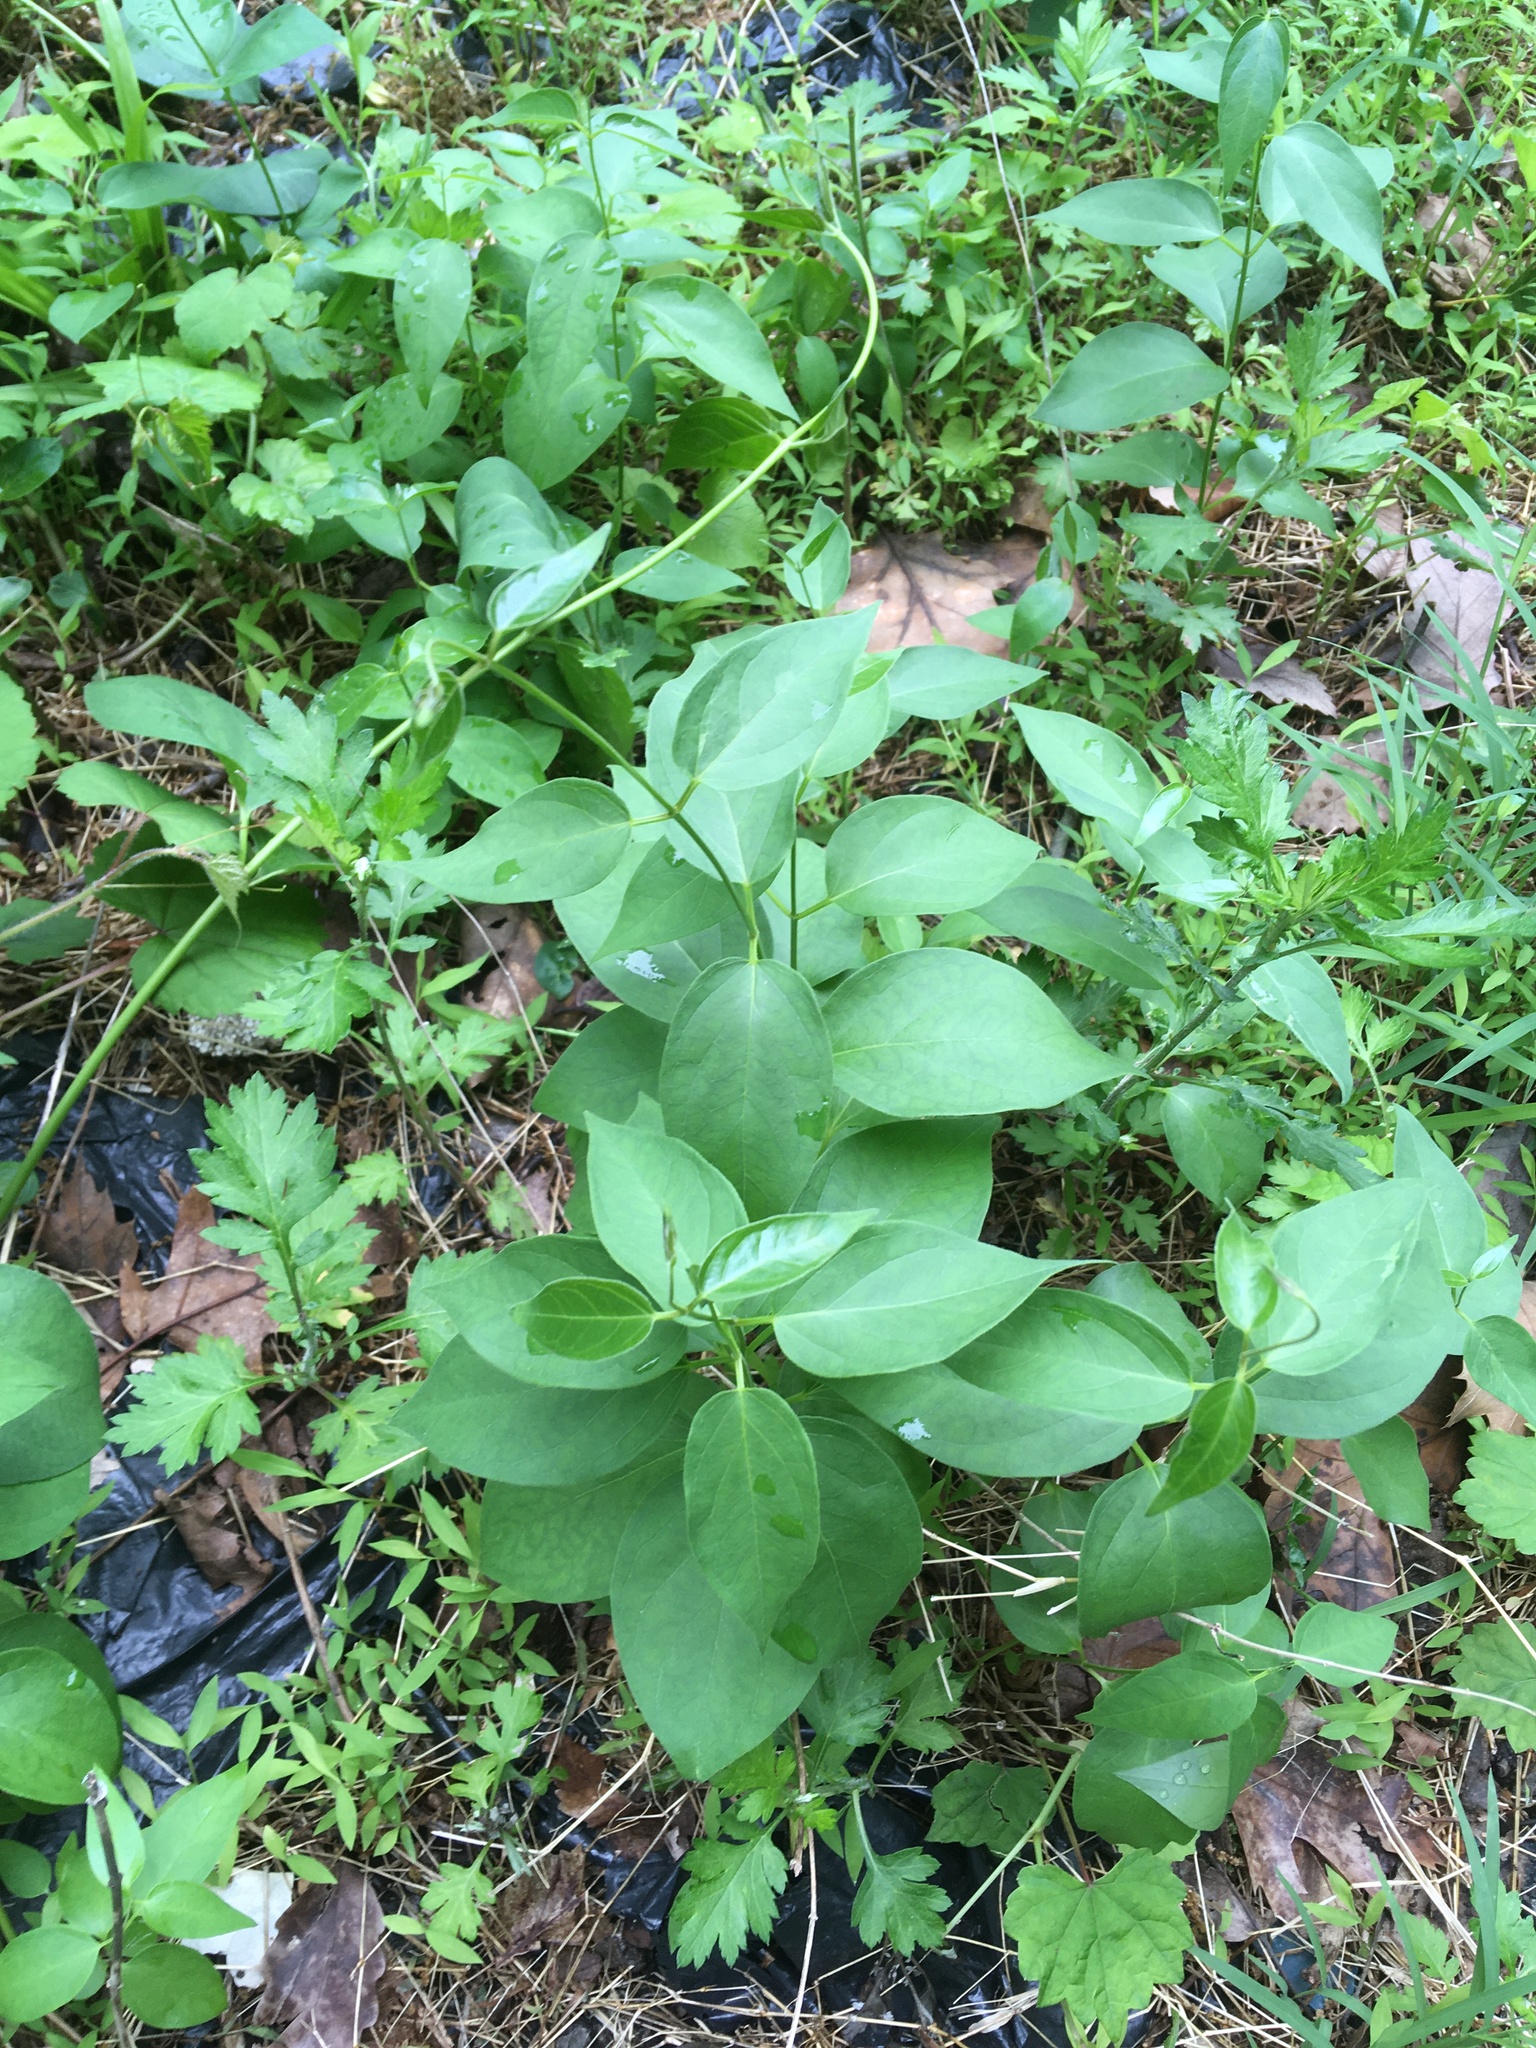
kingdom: Plantae
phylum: Tracheophyta
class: Magnoliopsida
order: Gentianales
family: Apocynaceae
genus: Vincetoxicum
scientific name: Vincetoxicum nigrum
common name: Black swallow-wort
